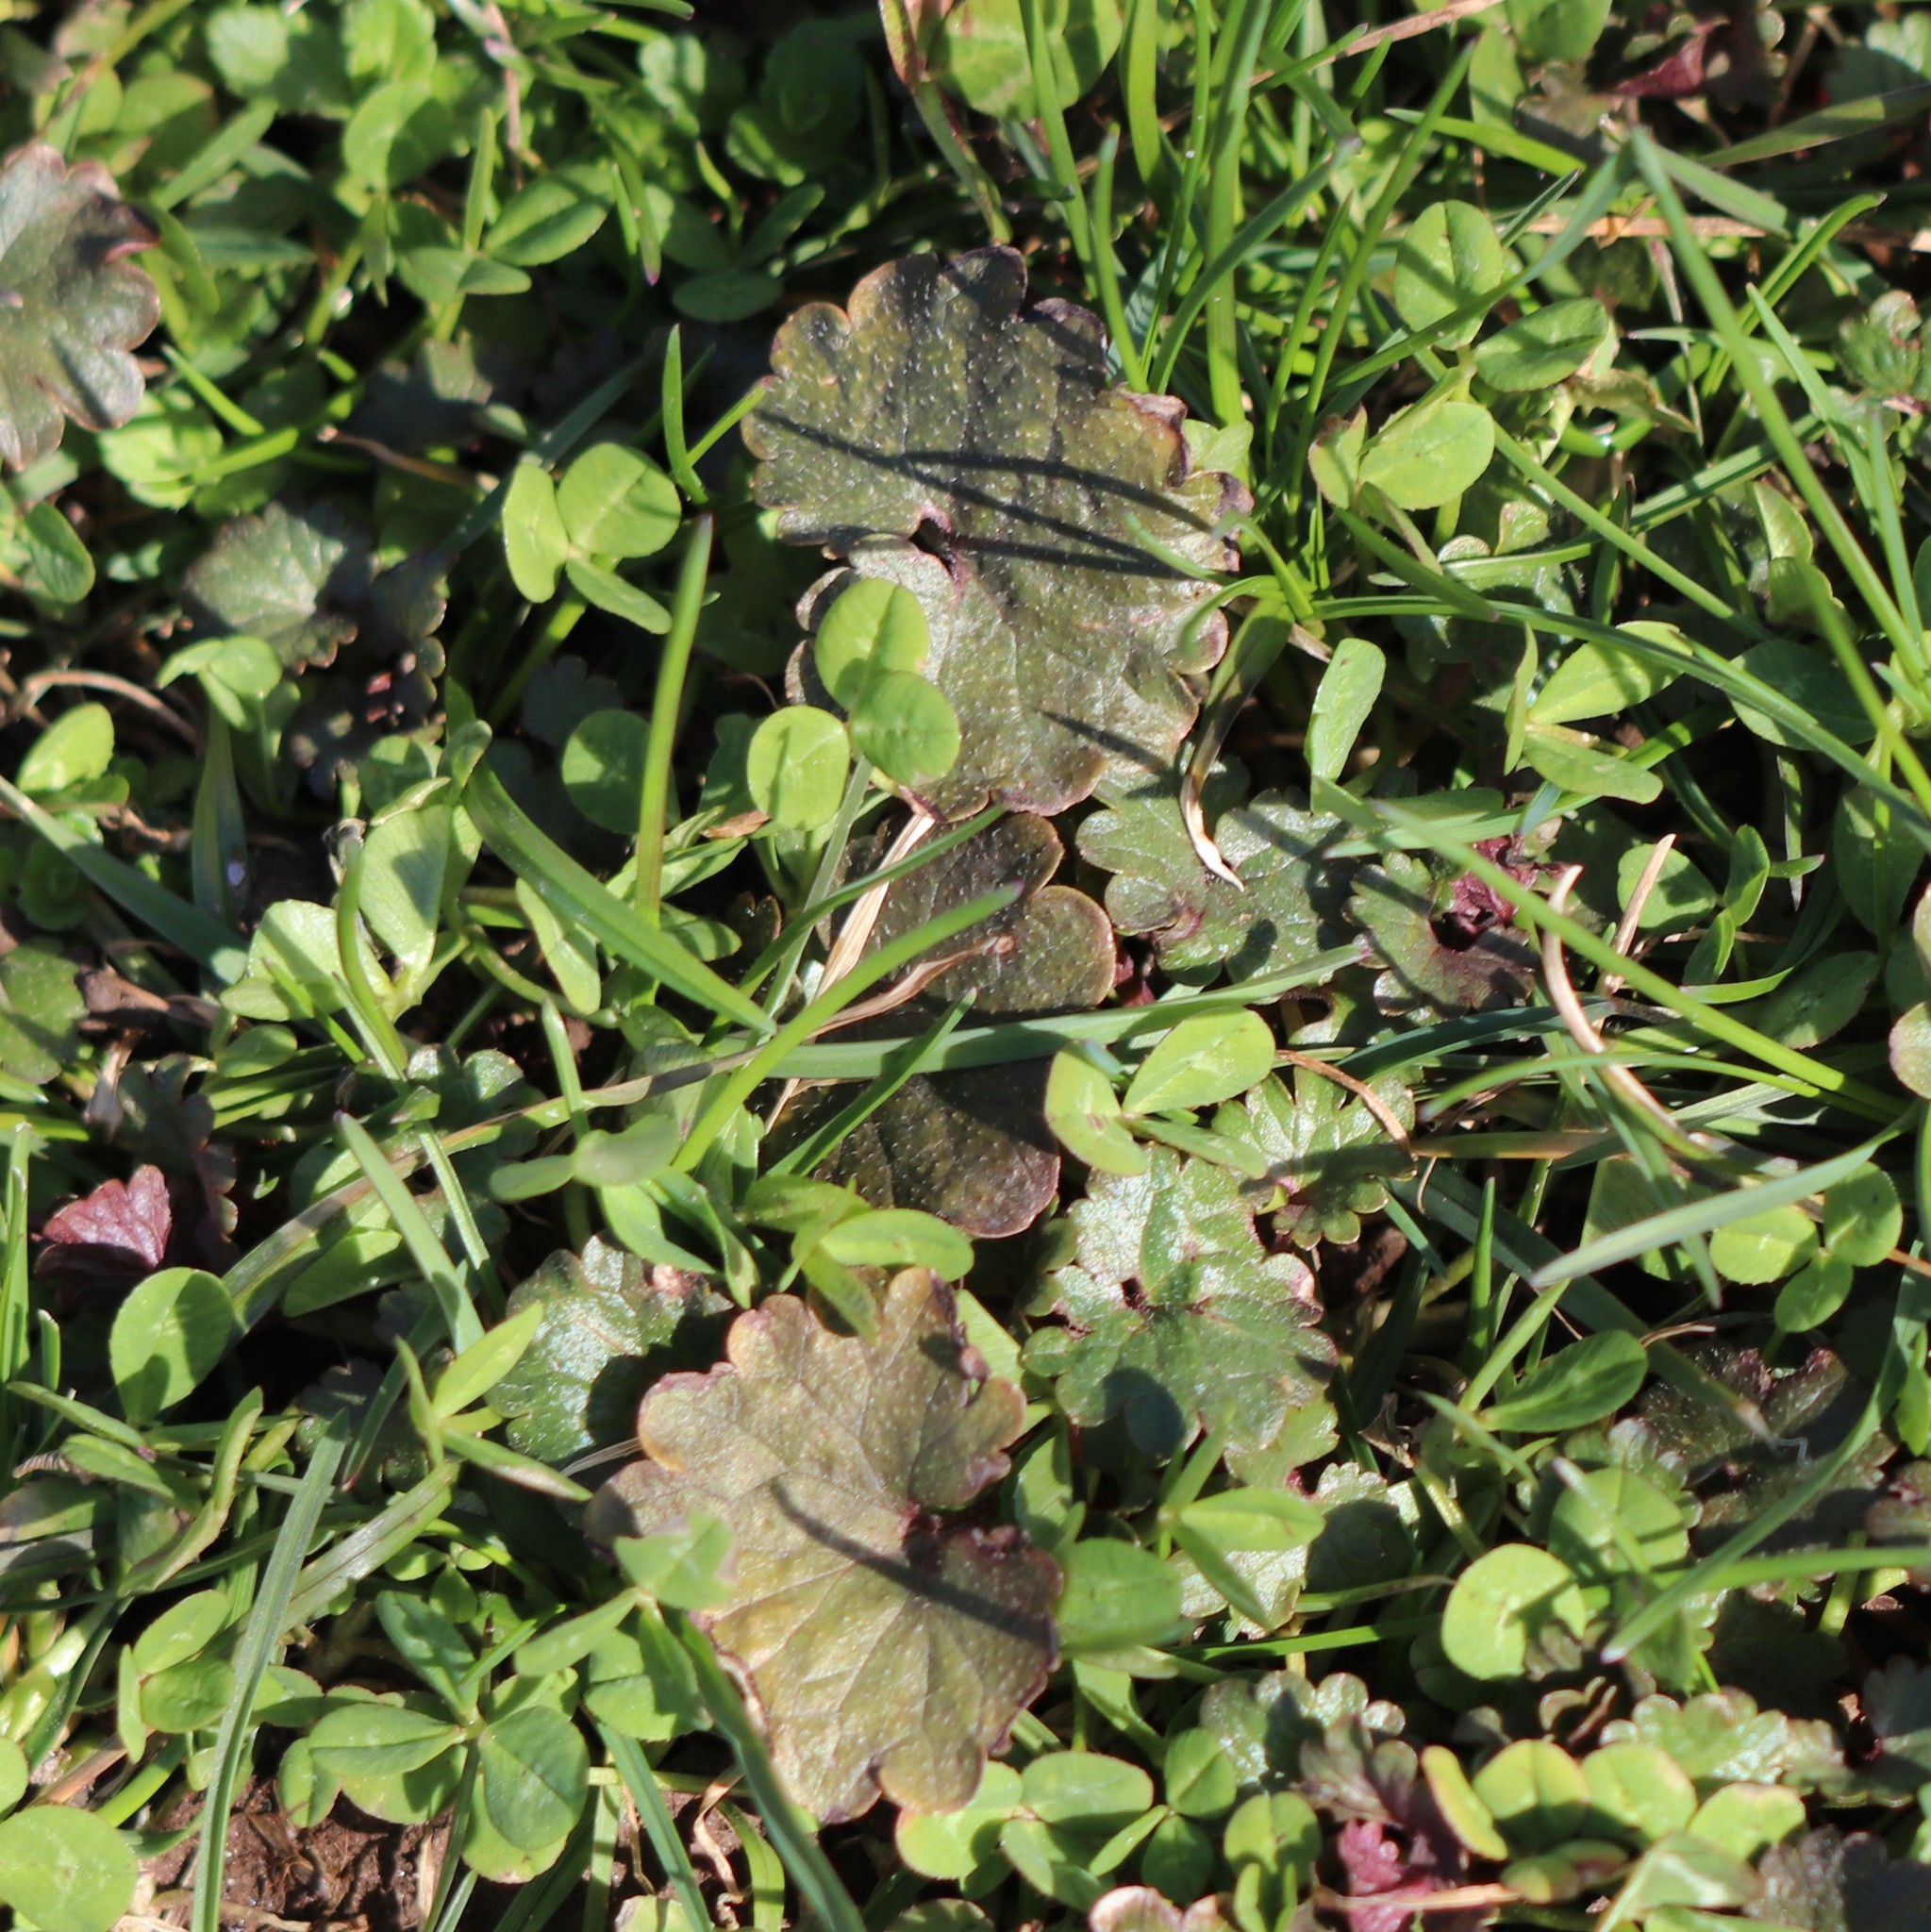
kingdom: Plantae
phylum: Tracheophyta
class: Magnoliopsida
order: Lamiales
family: Lamiaceae
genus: Glechoma
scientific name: Glechoma hederacea
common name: Ground ivy
